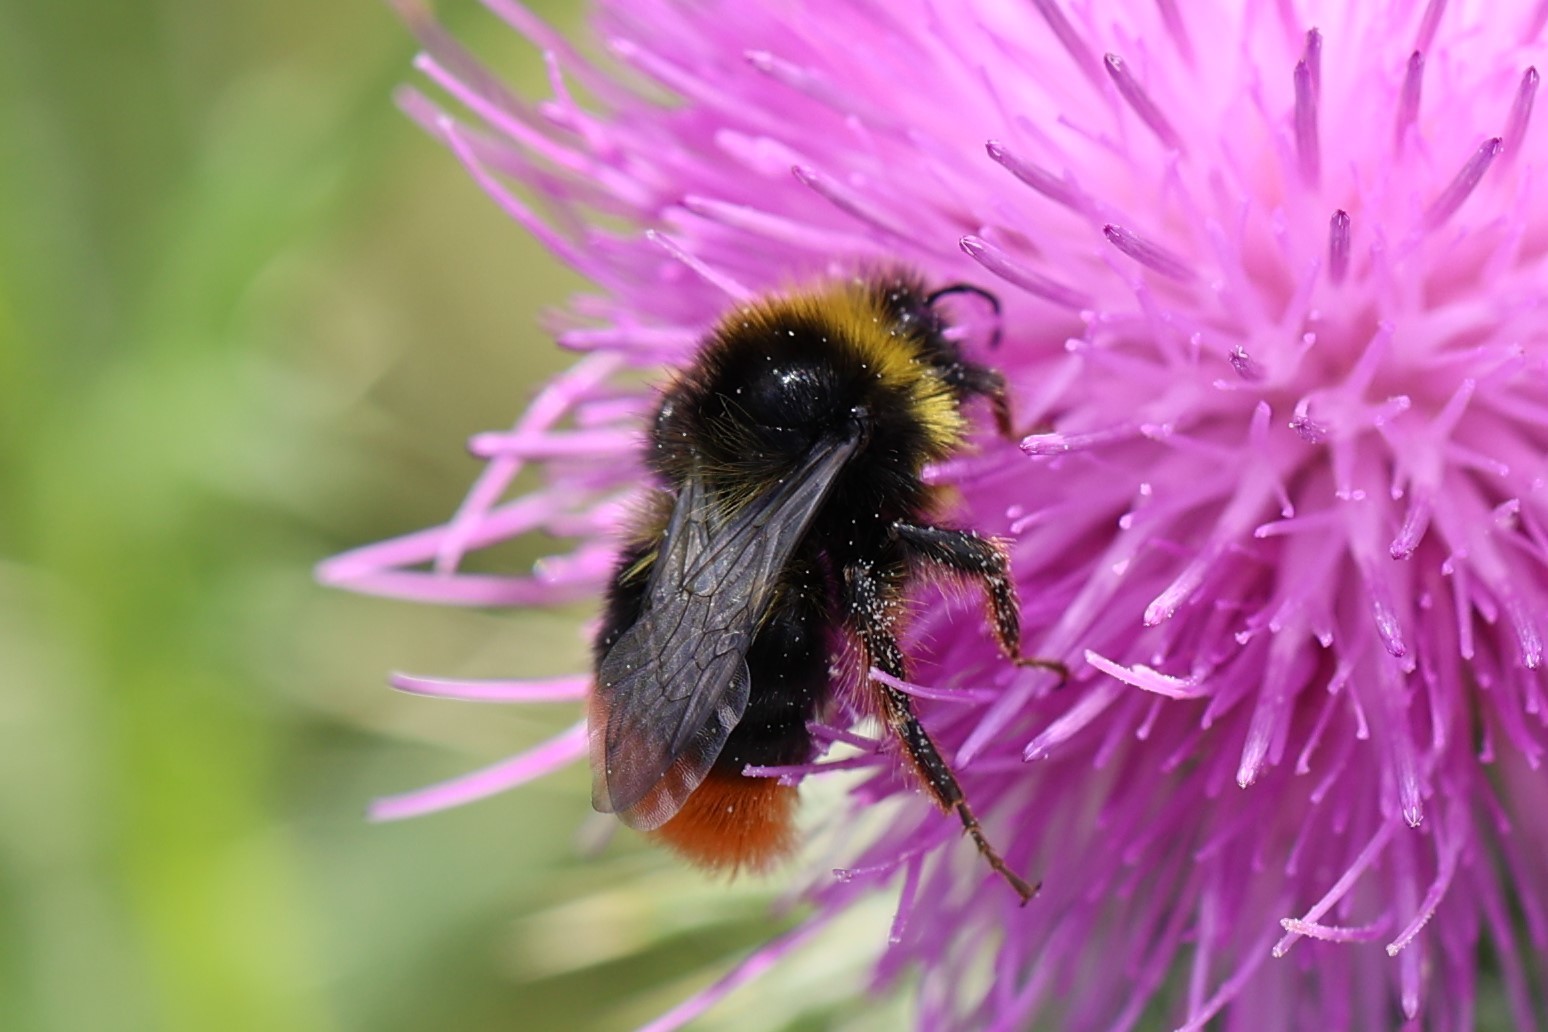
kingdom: Animalia
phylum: Arthropoda
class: Insecta
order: Hymenoptera
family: Apidae
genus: Bombus
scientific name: Bombus lapidarius
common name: Large red-tailed humble-bee
